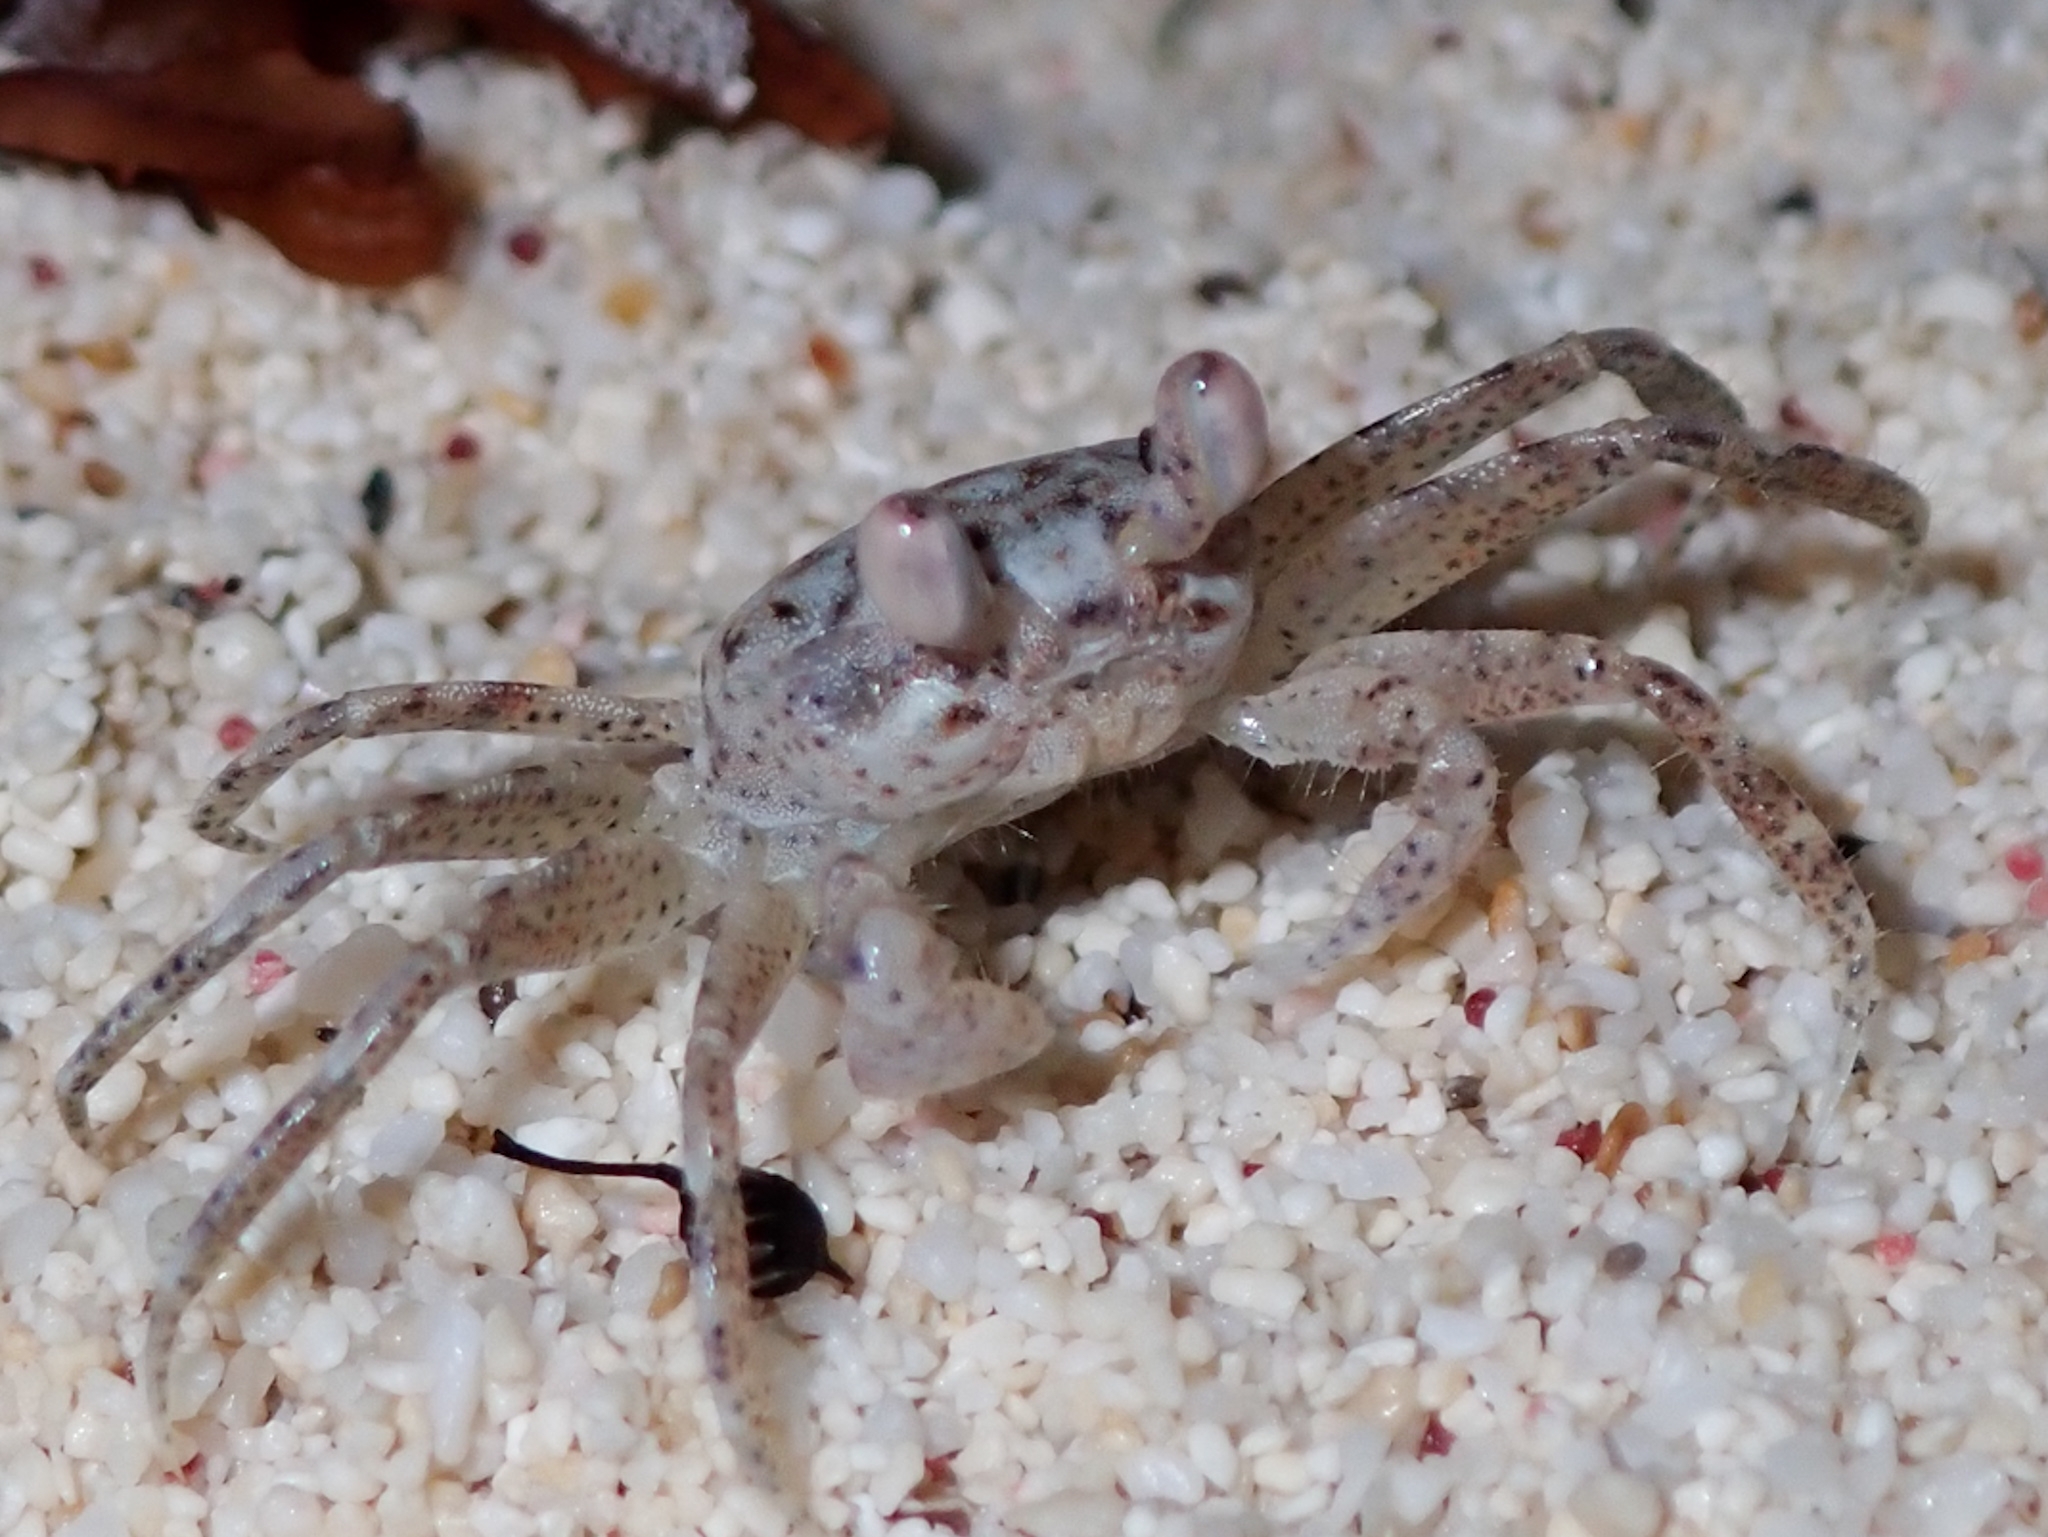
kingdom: Animalia
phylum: Arthropoda
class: Malacostraca
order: Decapoda
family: Ocypodidae
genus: Ocypode
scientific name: Ocypode quadrata
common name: Ghost crab
